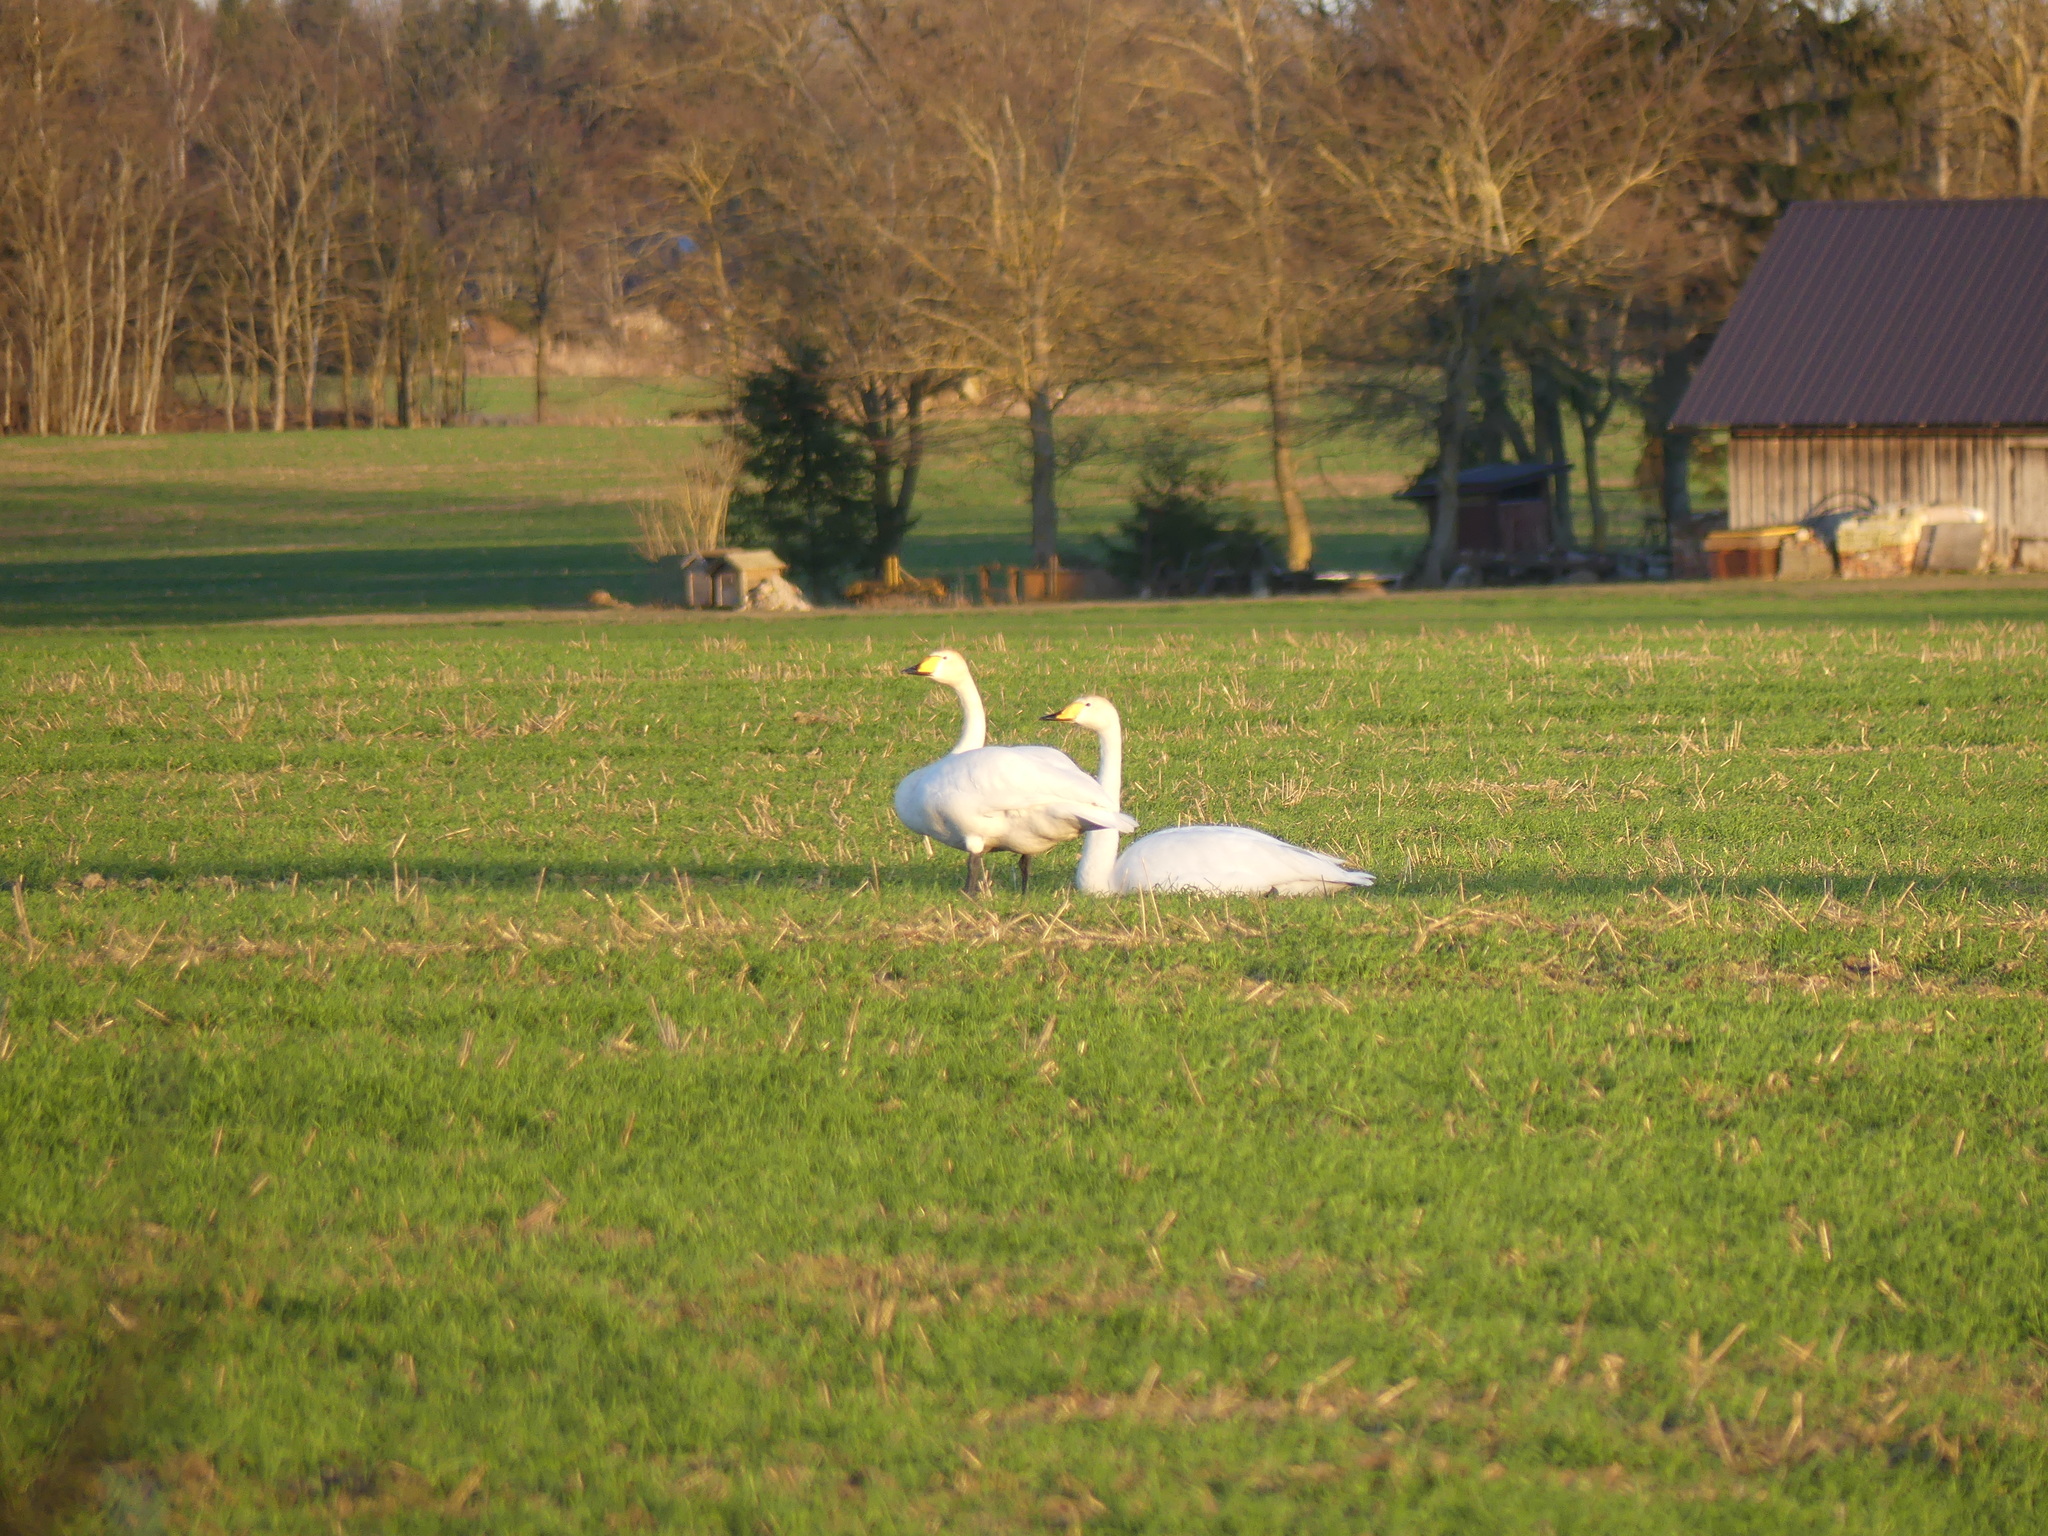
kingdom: Animalia
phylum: Chordata
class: Aves
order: Anseriformes
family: Anatidae
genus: Cygnus
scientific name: Cygnus cygnus
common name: Whooper swan
